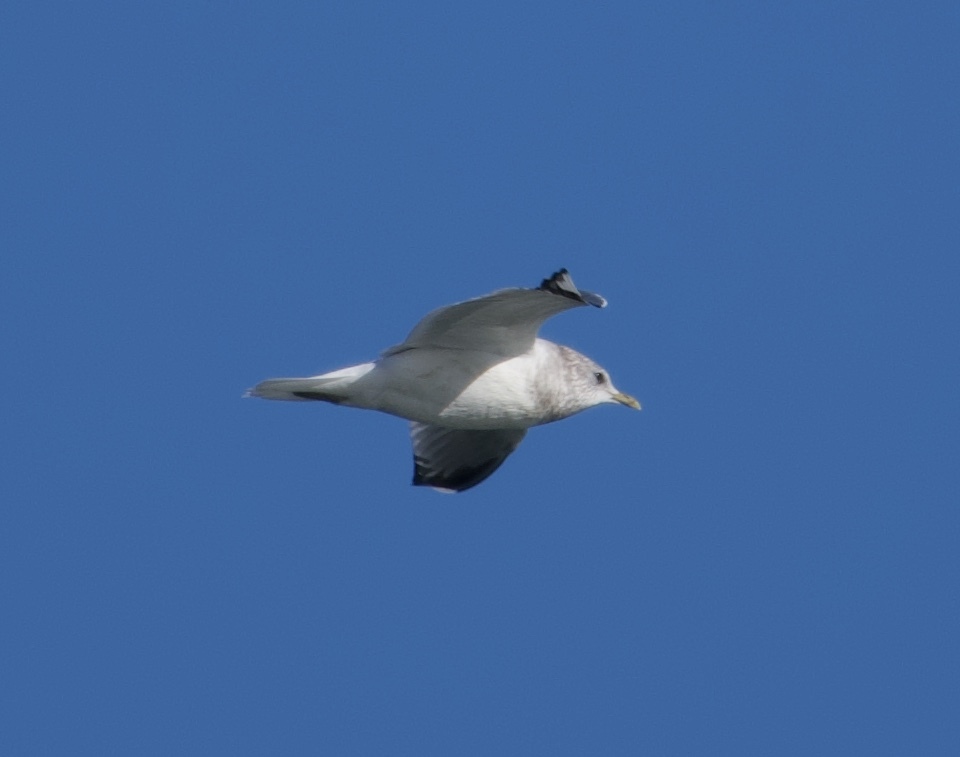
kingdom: Animalia
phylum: Chordata
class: Aves
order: Charadriiformes
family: Laridae
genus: Larus
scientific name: Larus brachyrhynchus
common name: Short-billed gull
